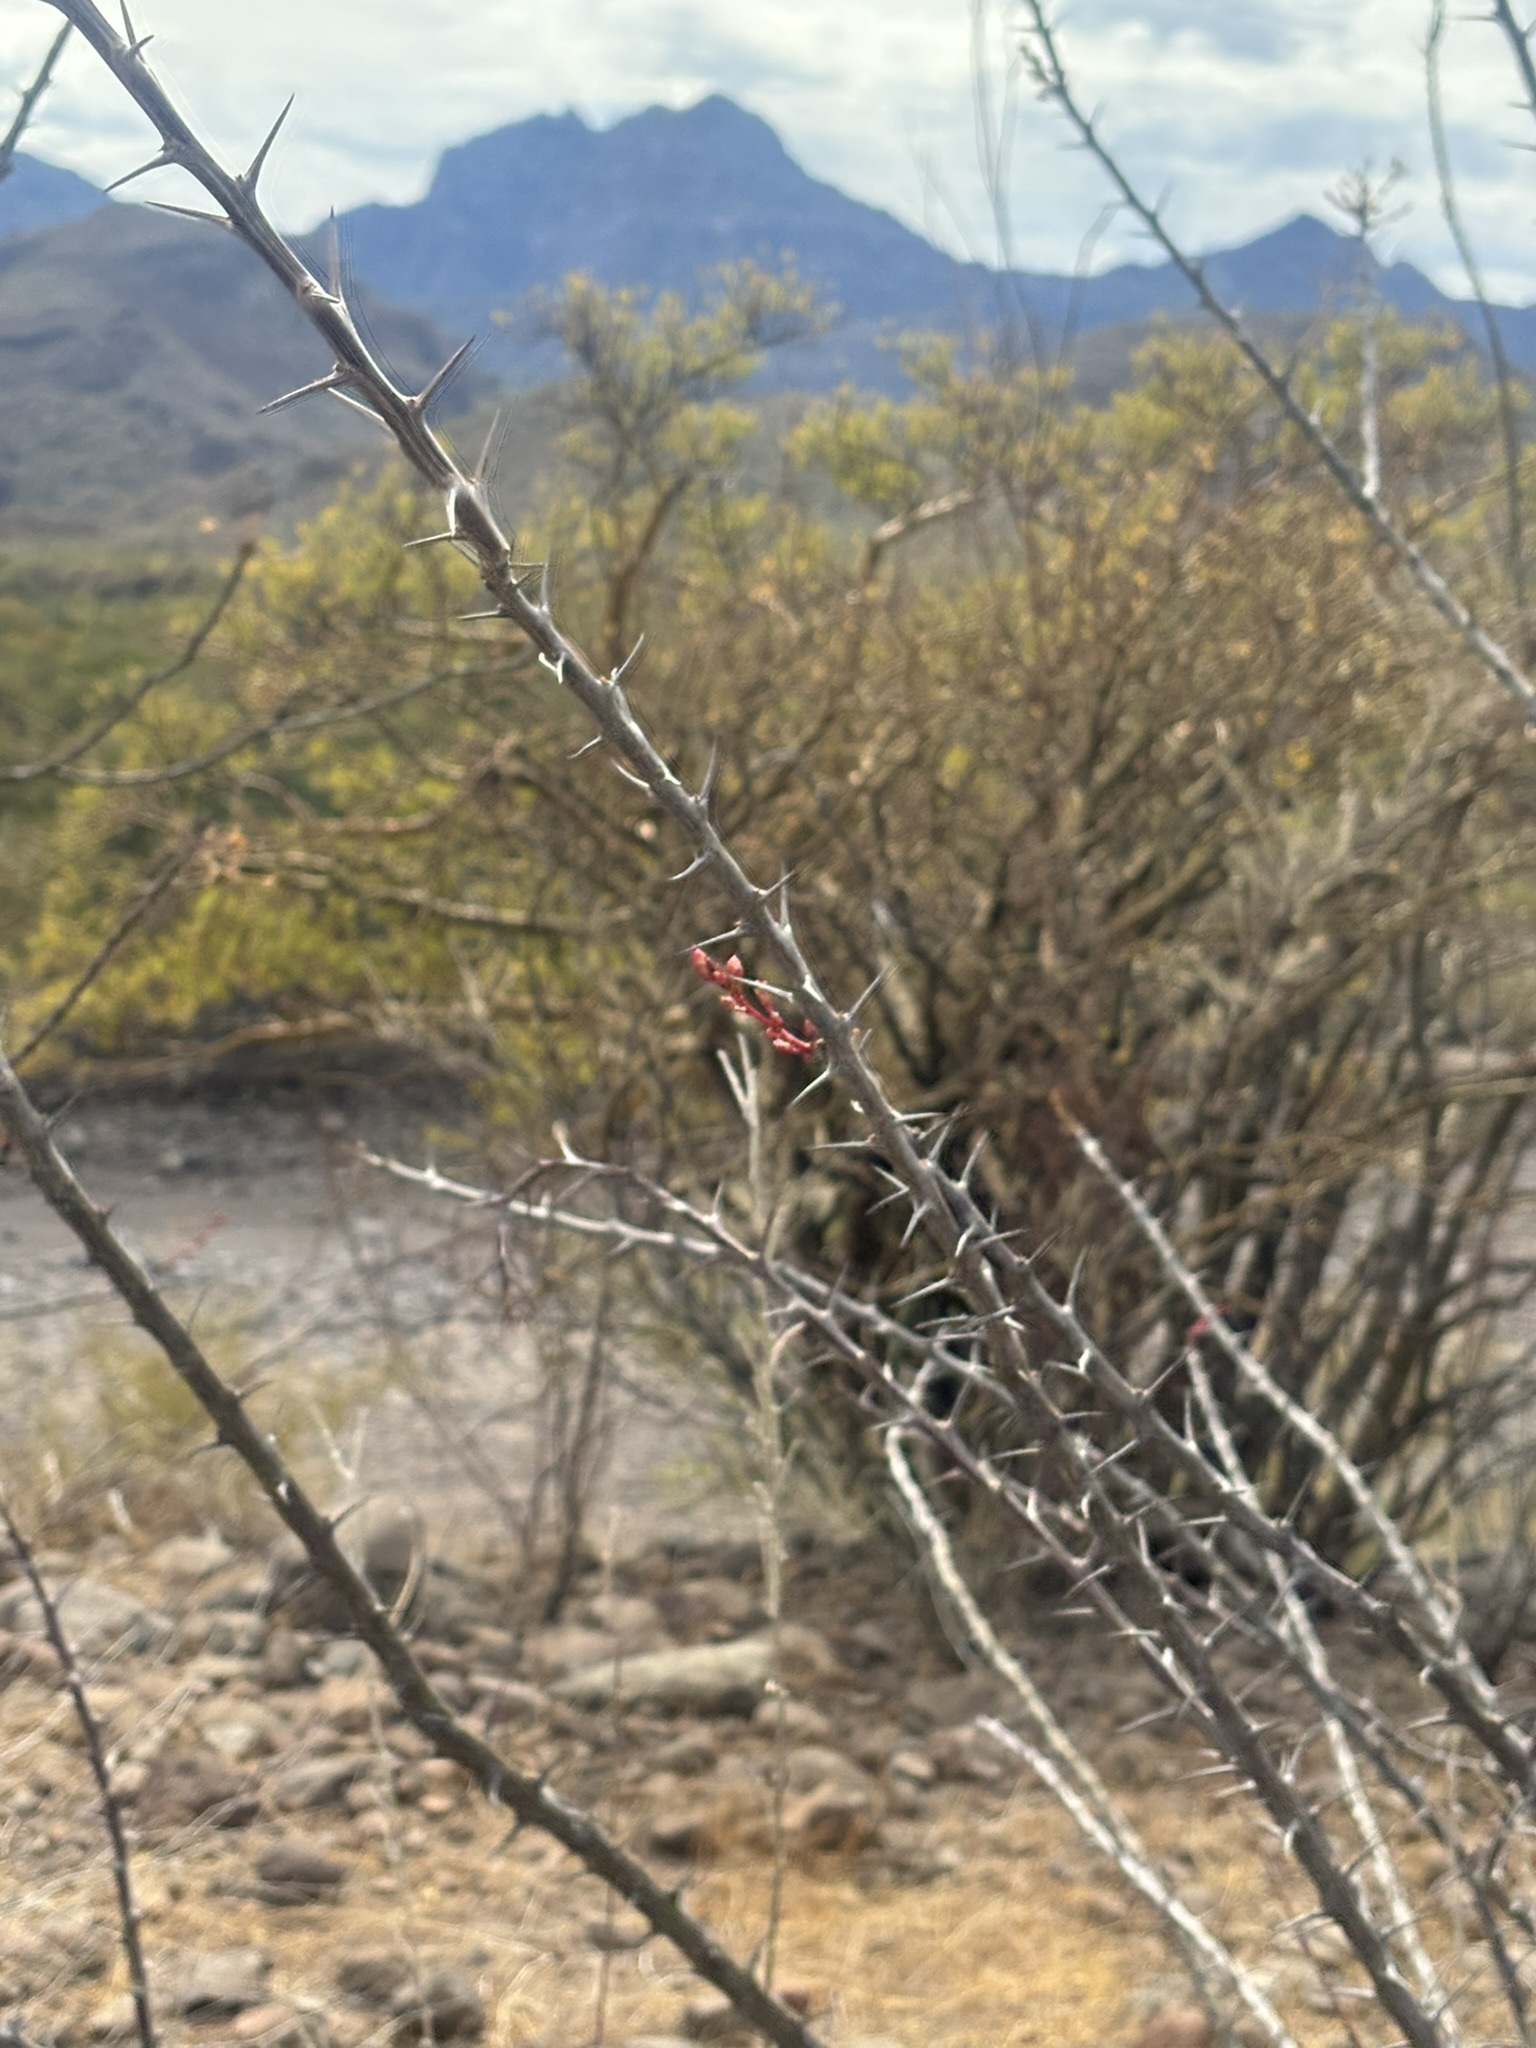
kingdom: Plantae
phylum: Tracheophyta
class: Magnoliopsida
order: Ericales
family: Fouquieriaceae
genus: Fouquieria
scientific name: Fouquieria diguetii
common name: Adam's tree
